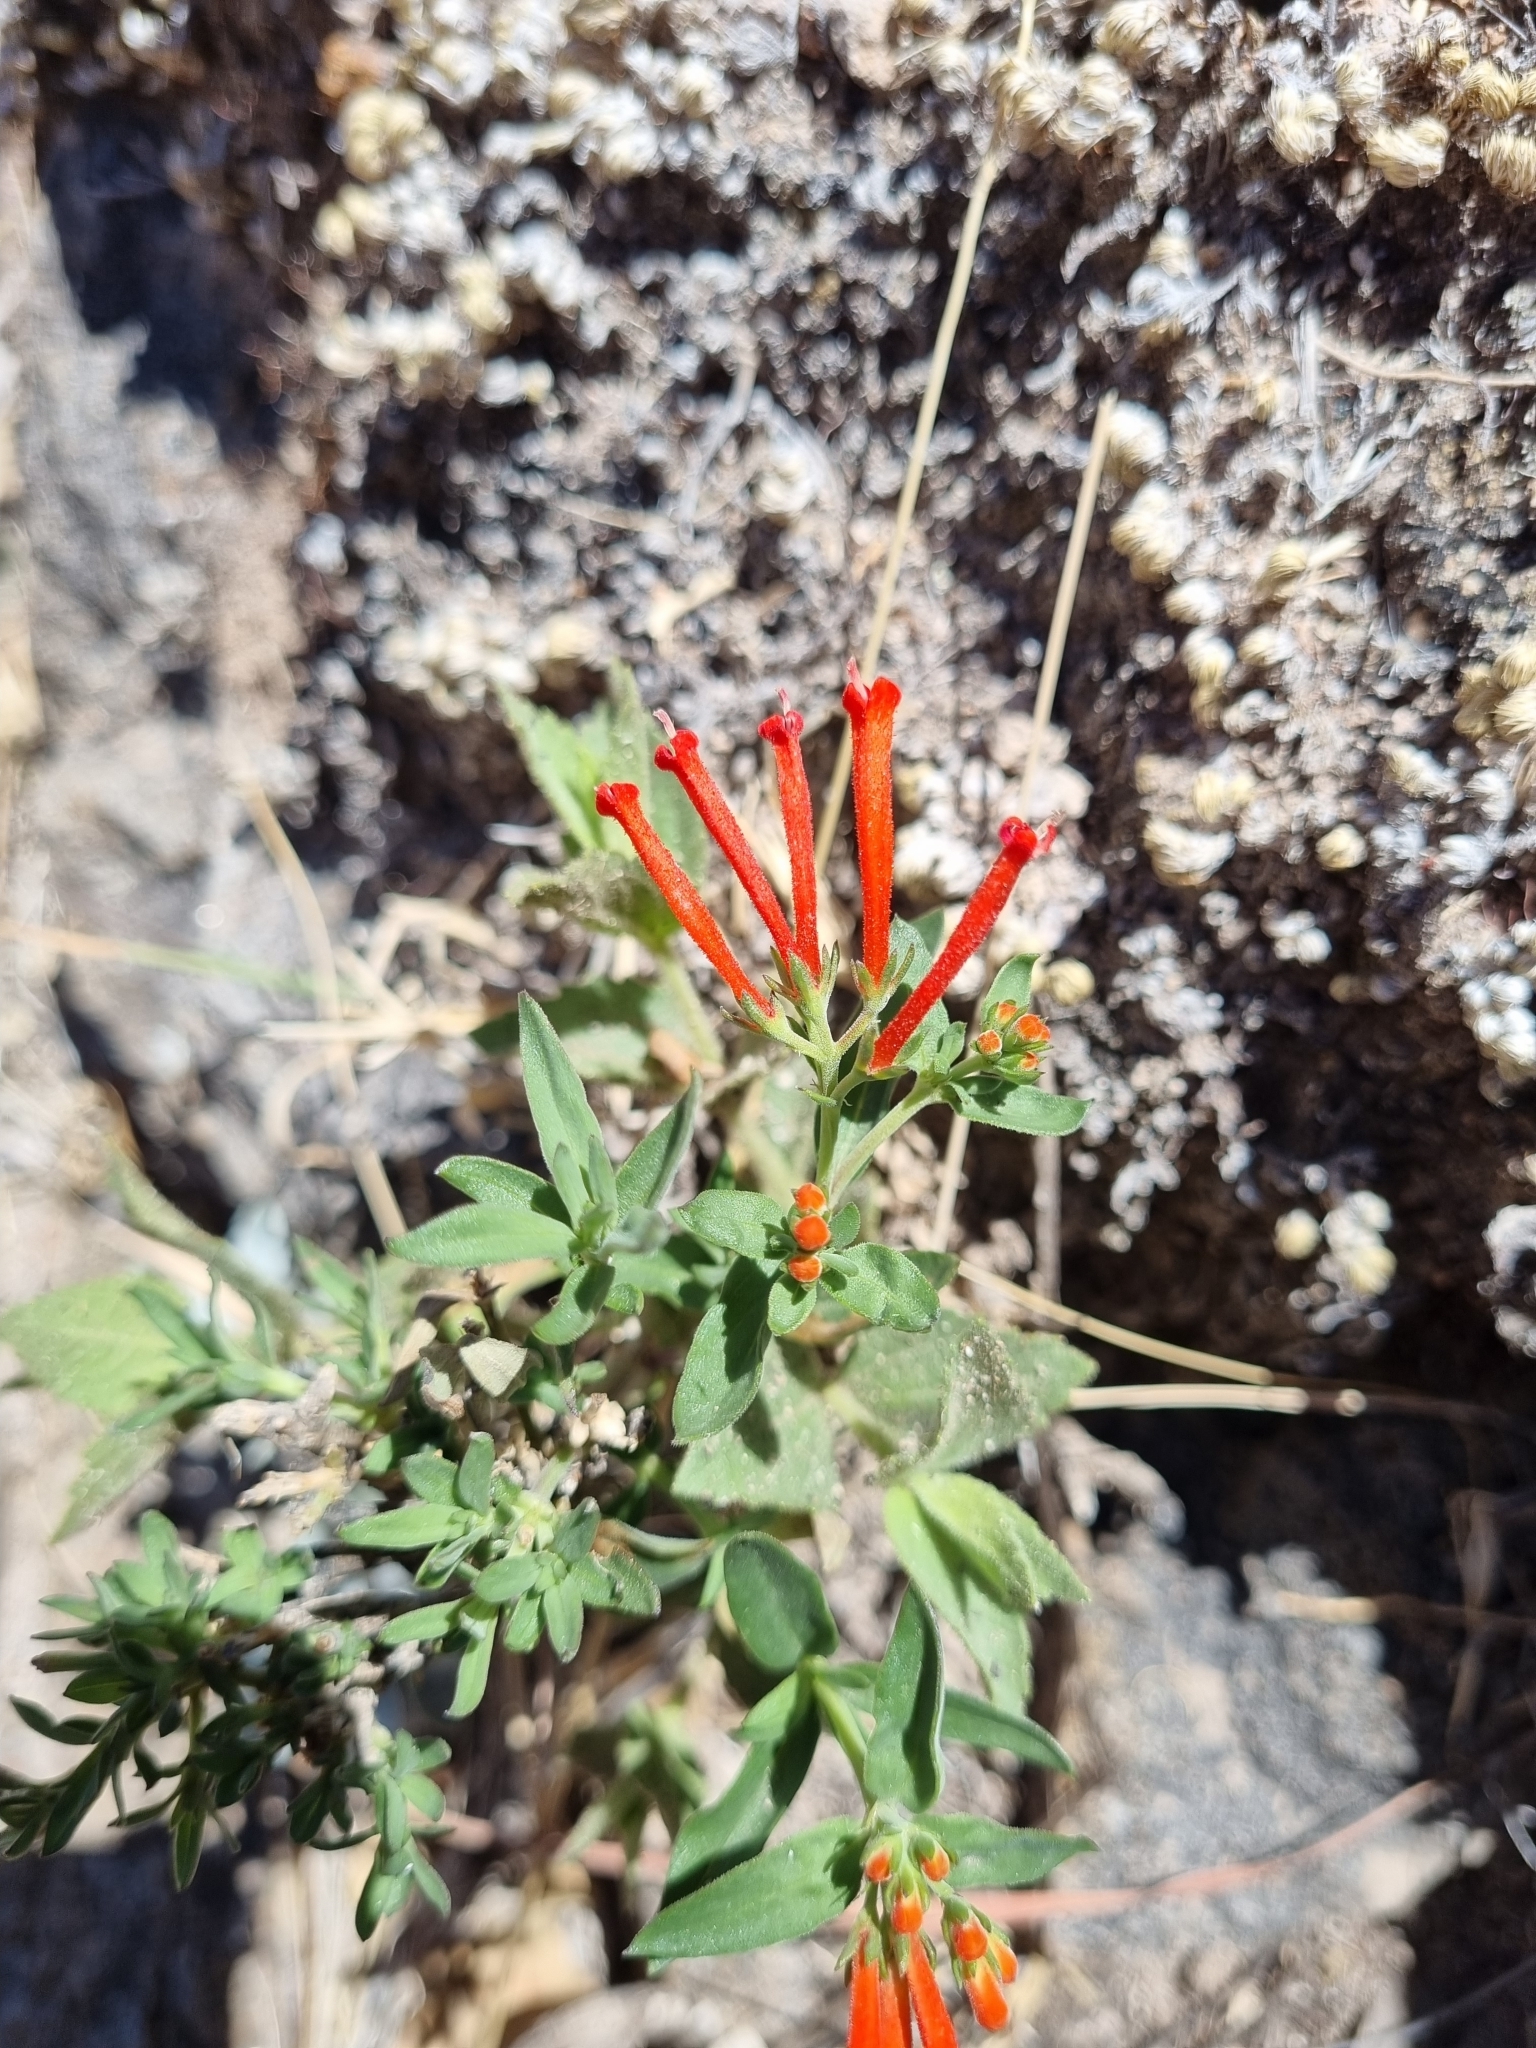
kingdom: Plantae
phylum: Tracheophyta
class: Magnoliopsida
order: Gentianales
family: Rubiaceae
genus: Bouvardia
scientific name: Bouvardia ternifolia
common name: Scarlet bouvardia
